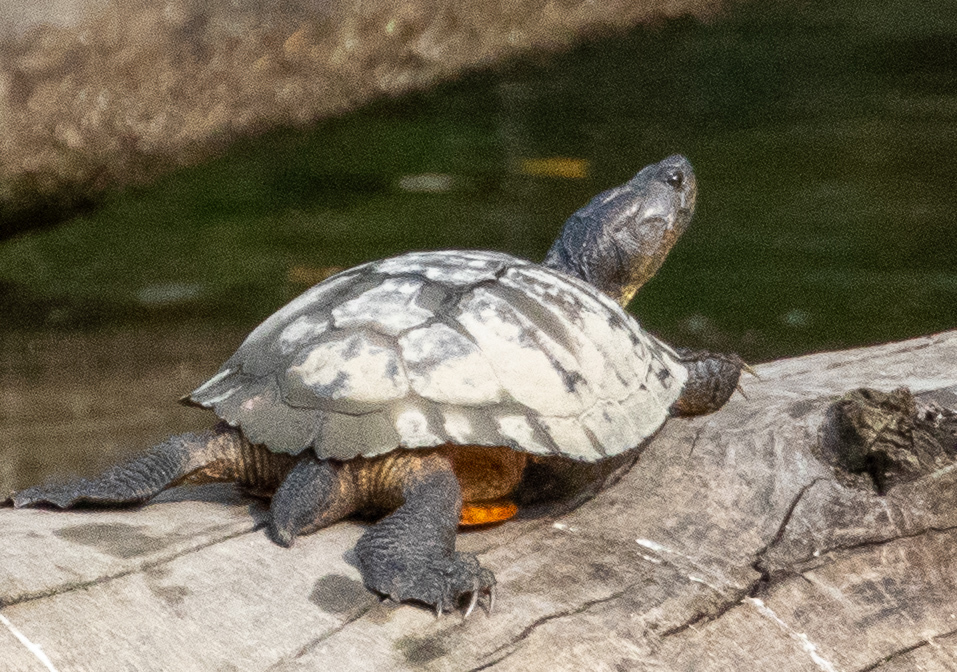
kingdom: Animalia
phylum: Chordata
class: Testudines
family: Emydidae
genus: Trachemys
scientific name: Trachemys scripta
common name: Slider
